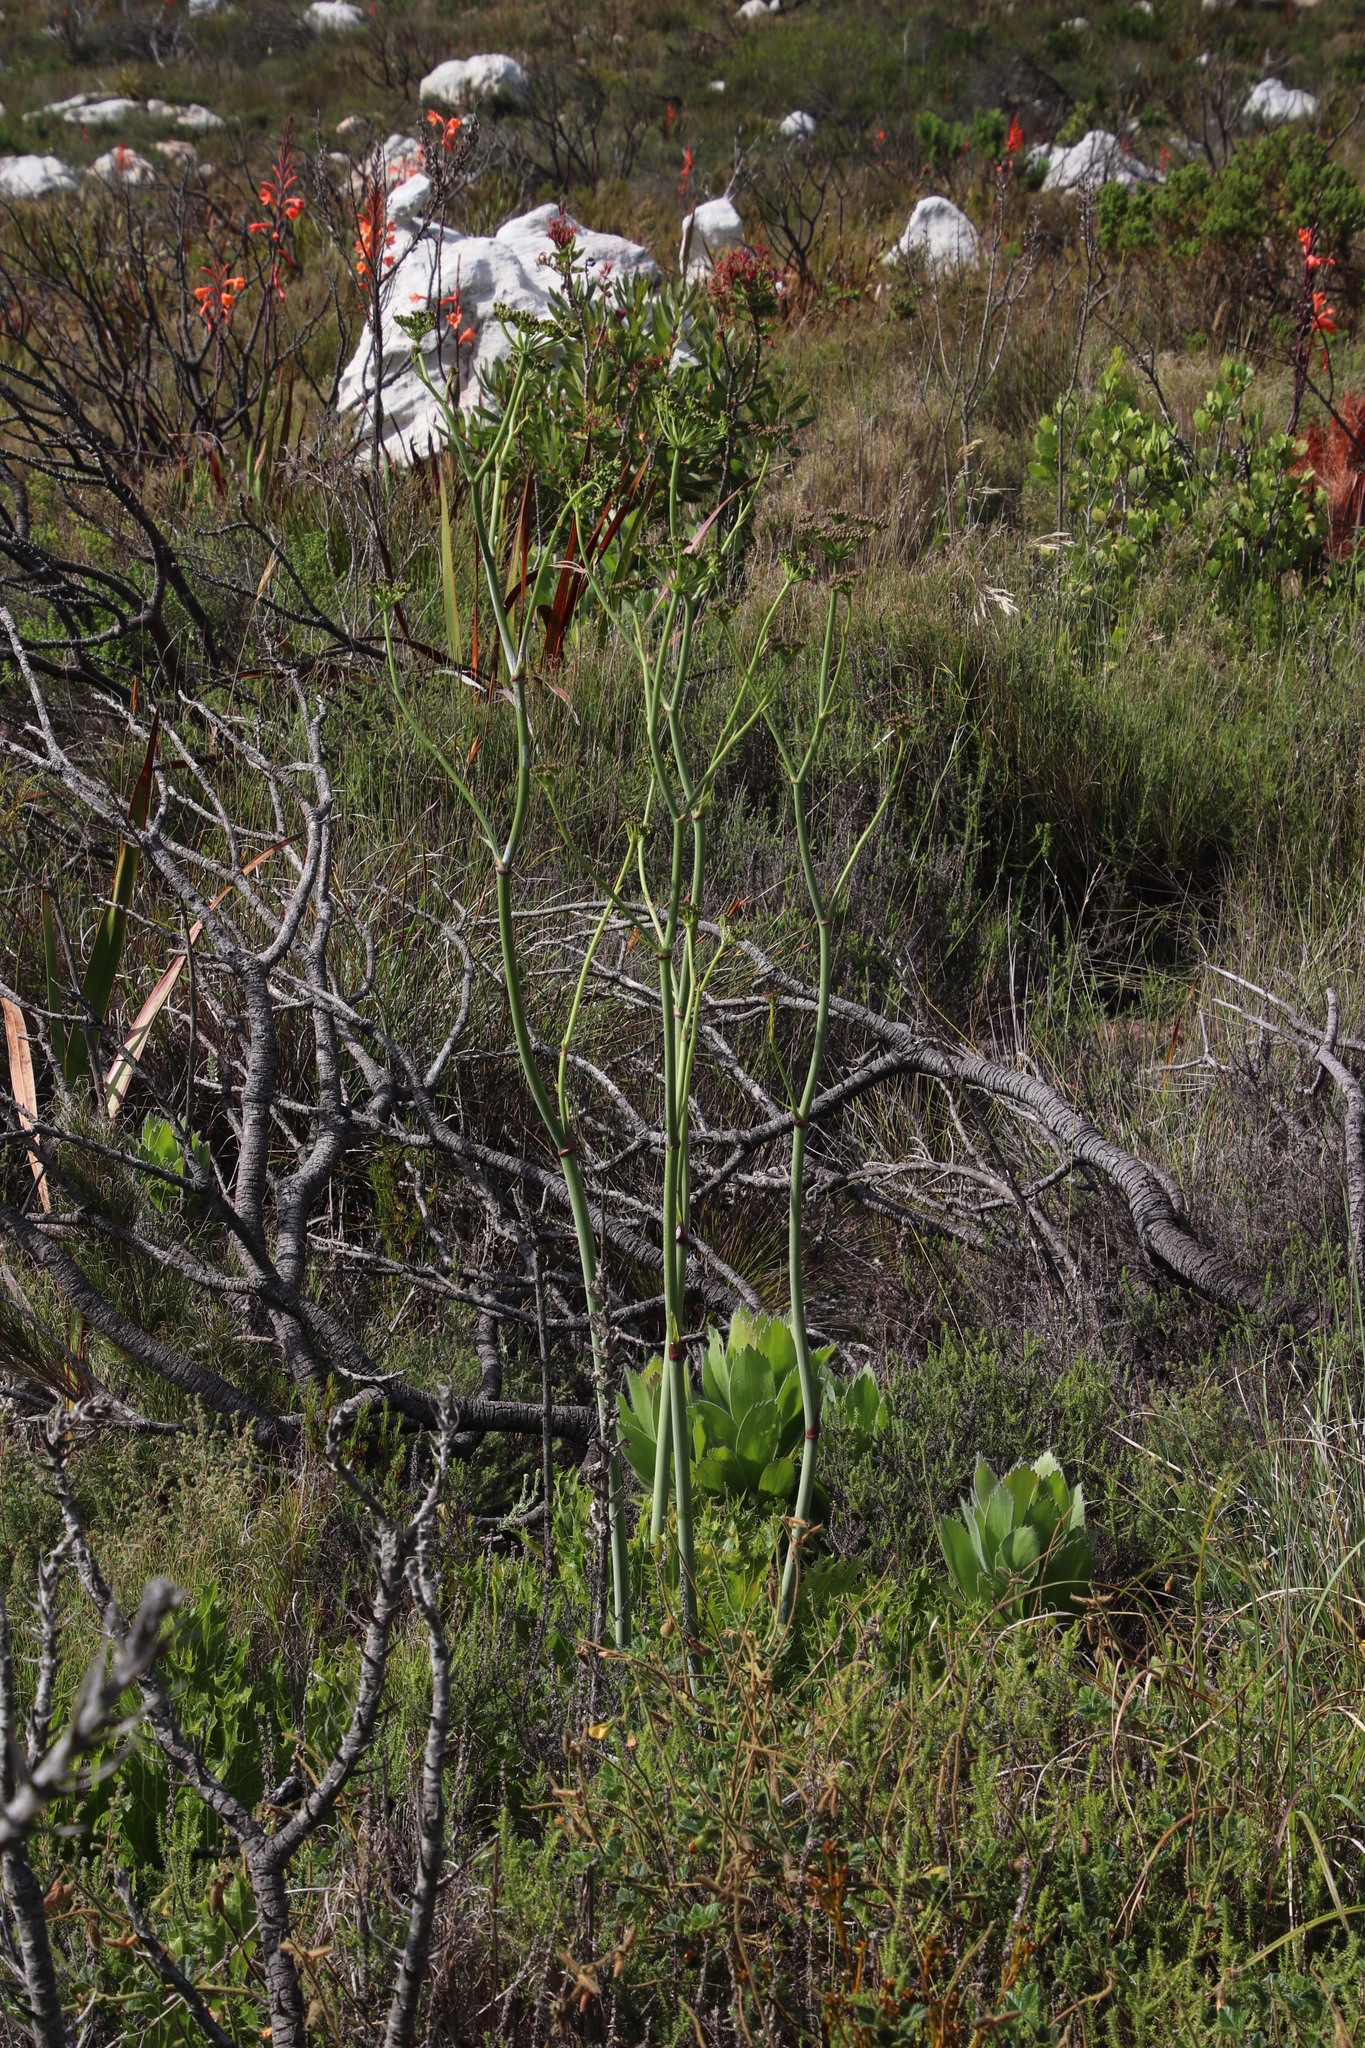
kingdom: Plantae
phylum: Tracheophyta
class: Magnoliopsida
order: Apiales
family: Apiaceae
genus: Lichtensteinia
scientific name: Lichtensteinia lacera
